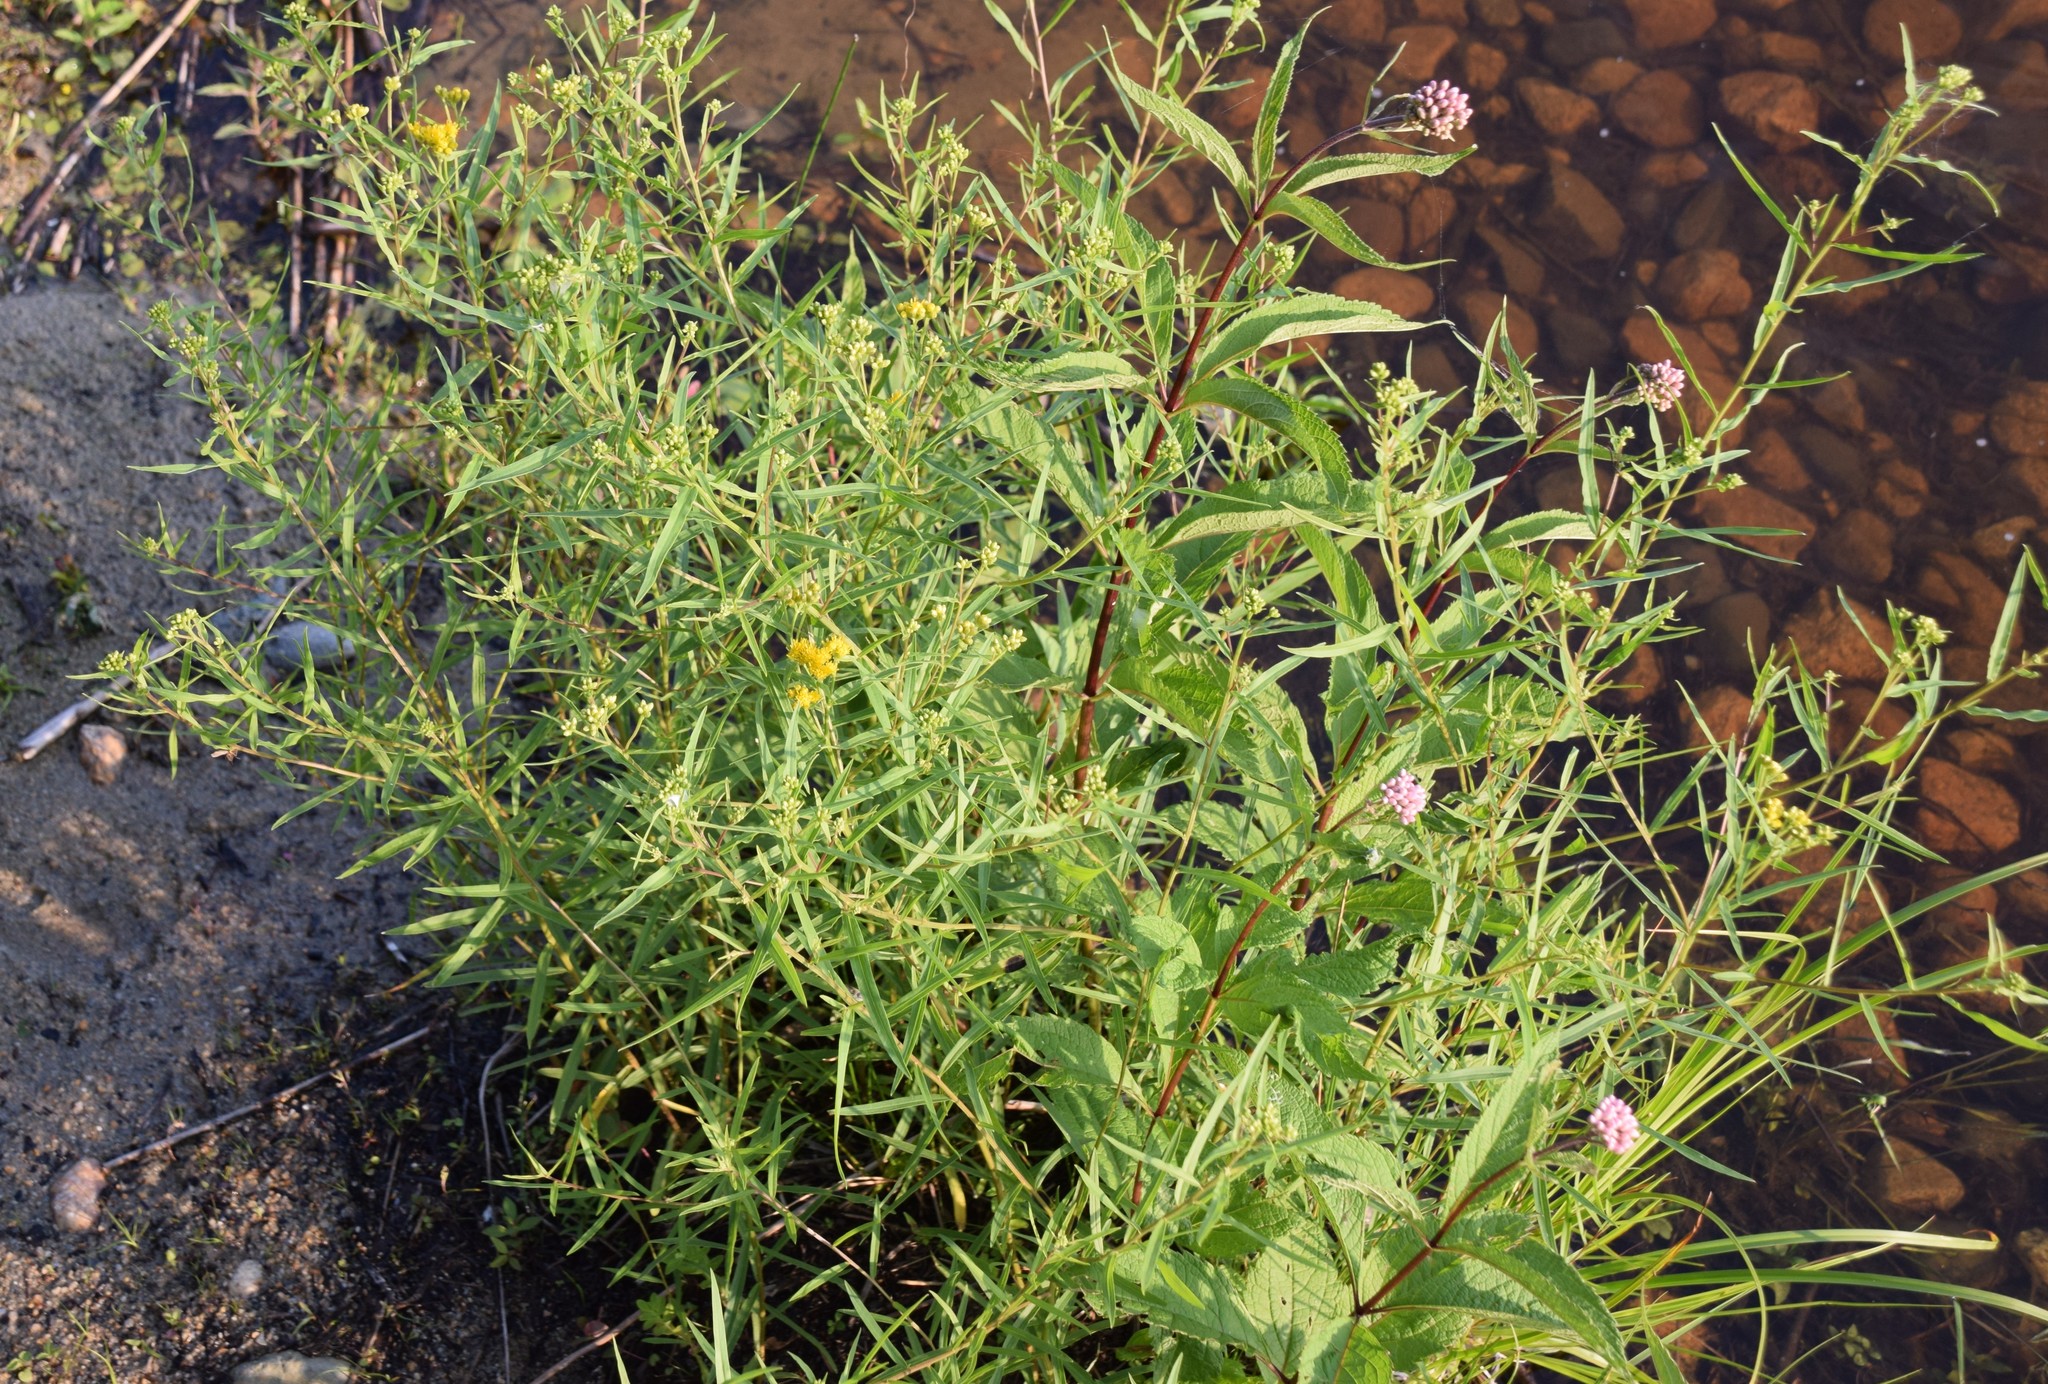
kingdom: Plantae
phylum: Tracheophyta
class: Magnoliopsida
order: Asterales
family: Asteraceae
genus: Euthamia
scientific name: Euthamia graminifolia
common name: Common goldentop
